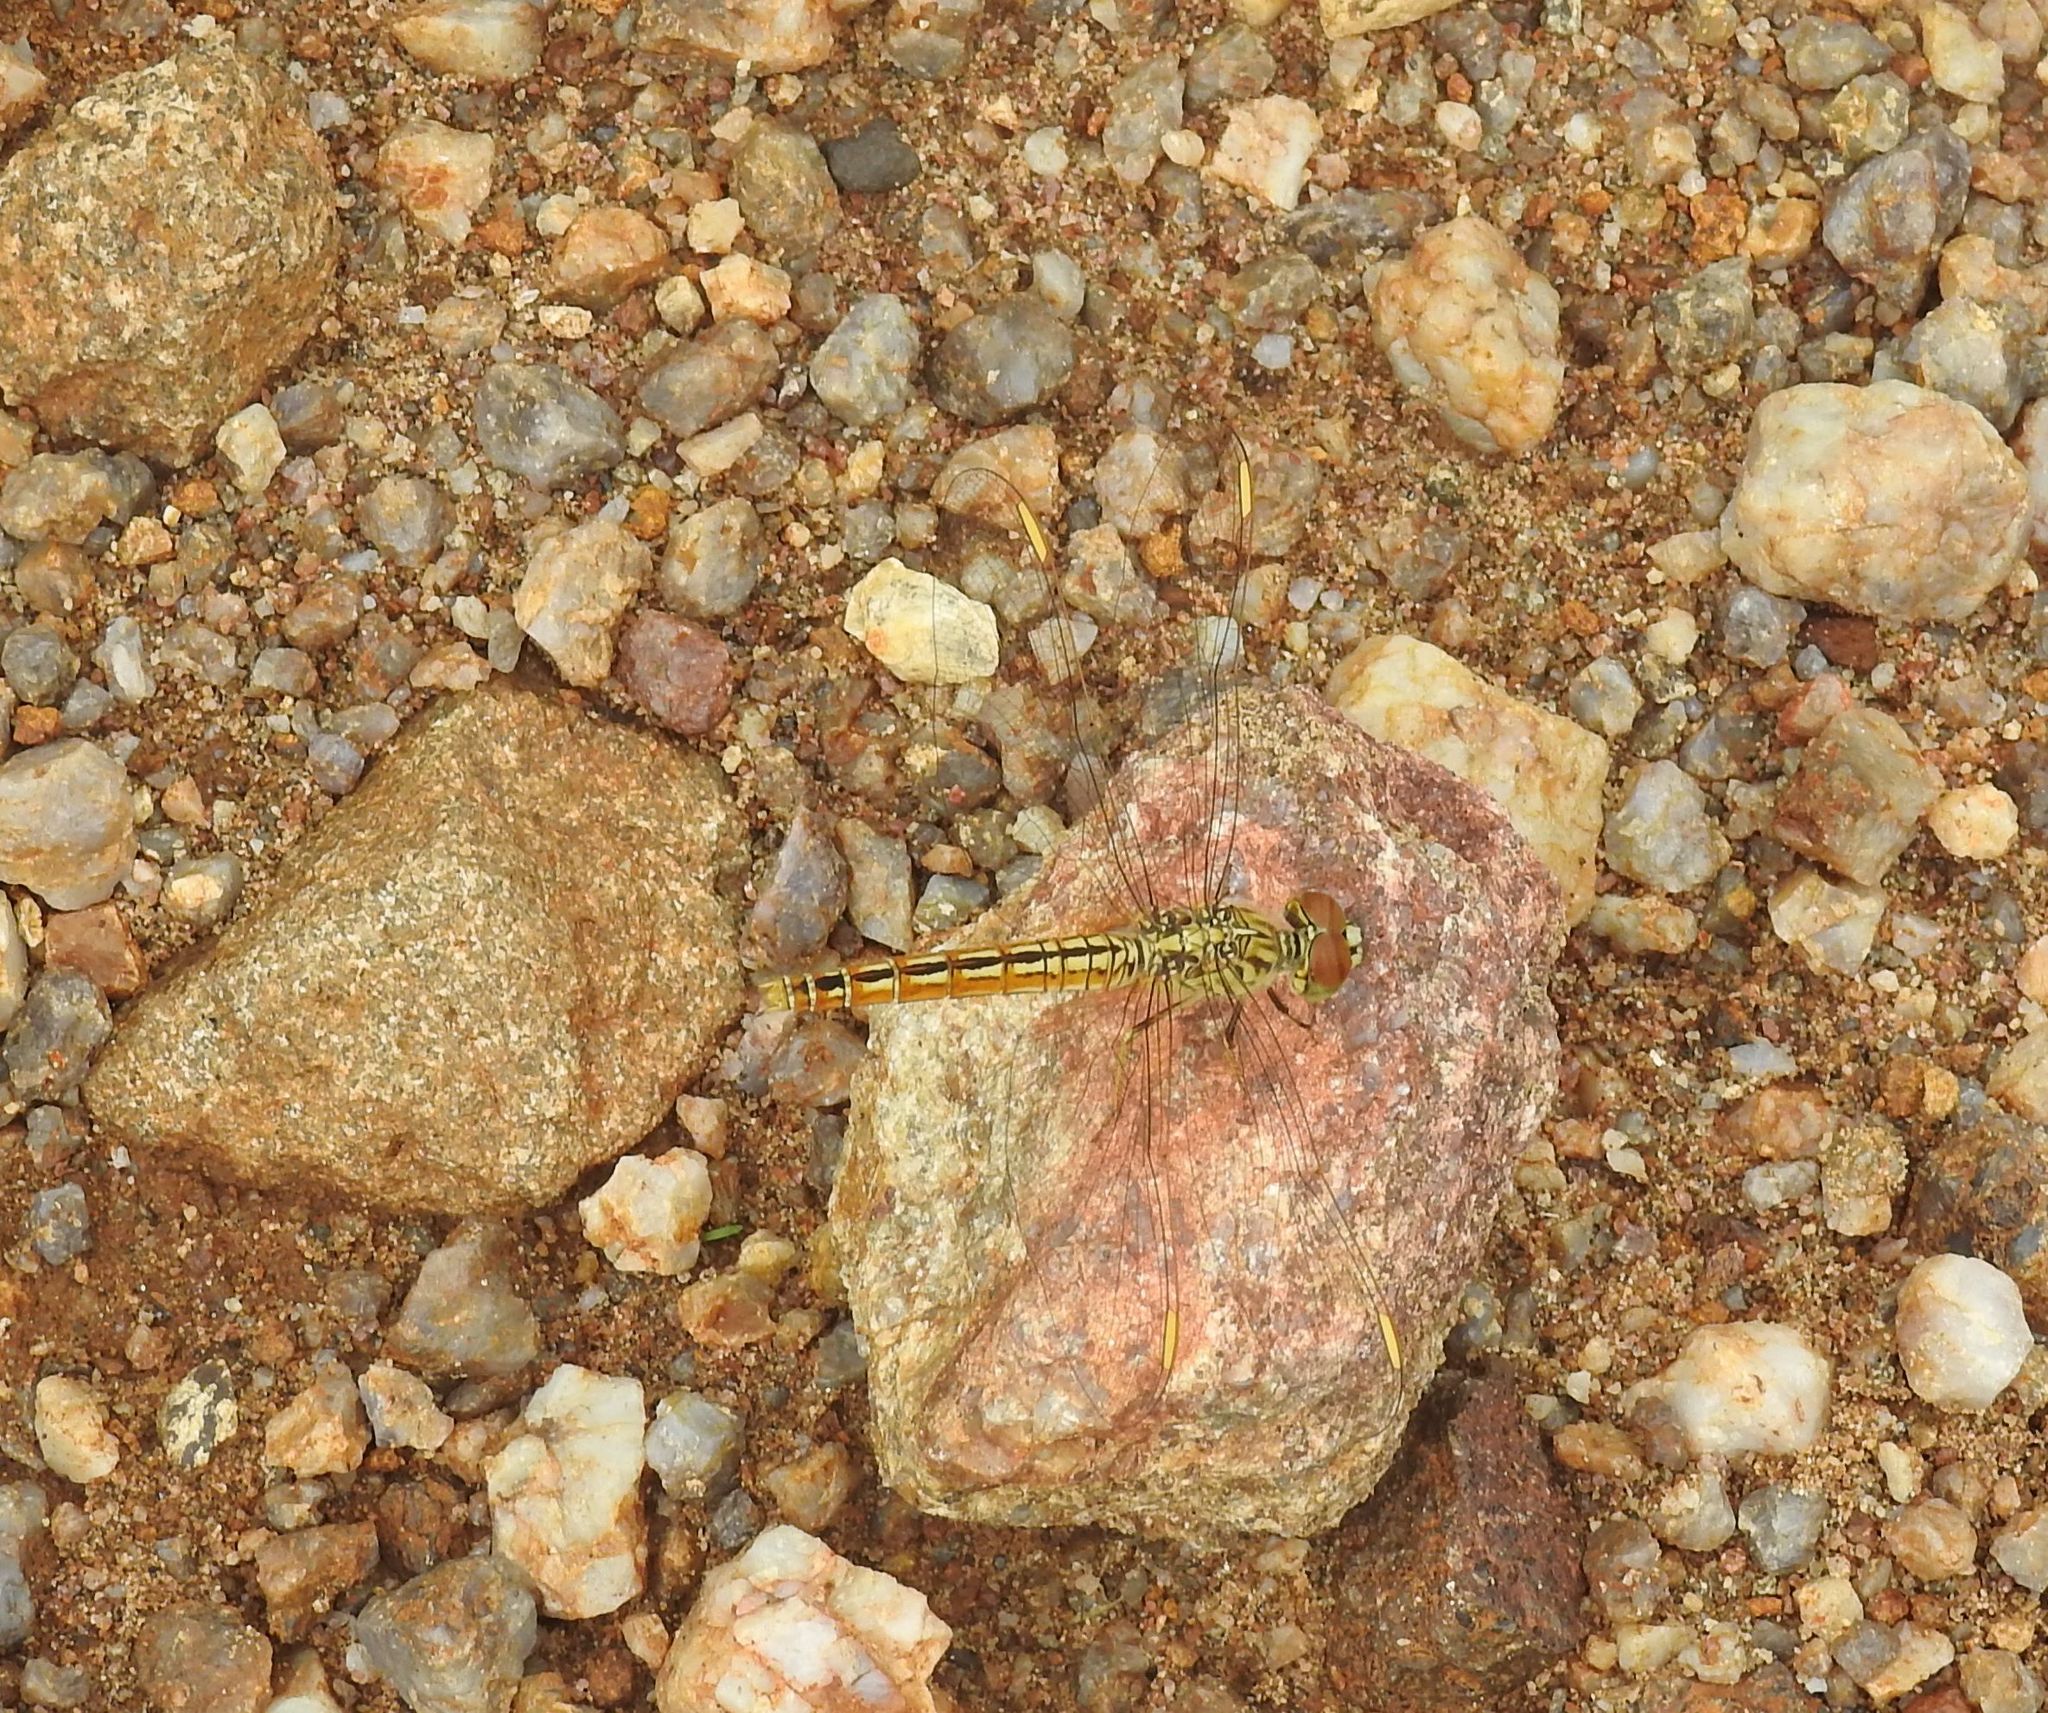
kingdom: Animalia
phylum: Arthropoda
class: Insecta
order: Odonata
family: Libellulidae
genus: Brachythemis
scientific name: Brachythemis contaminata
